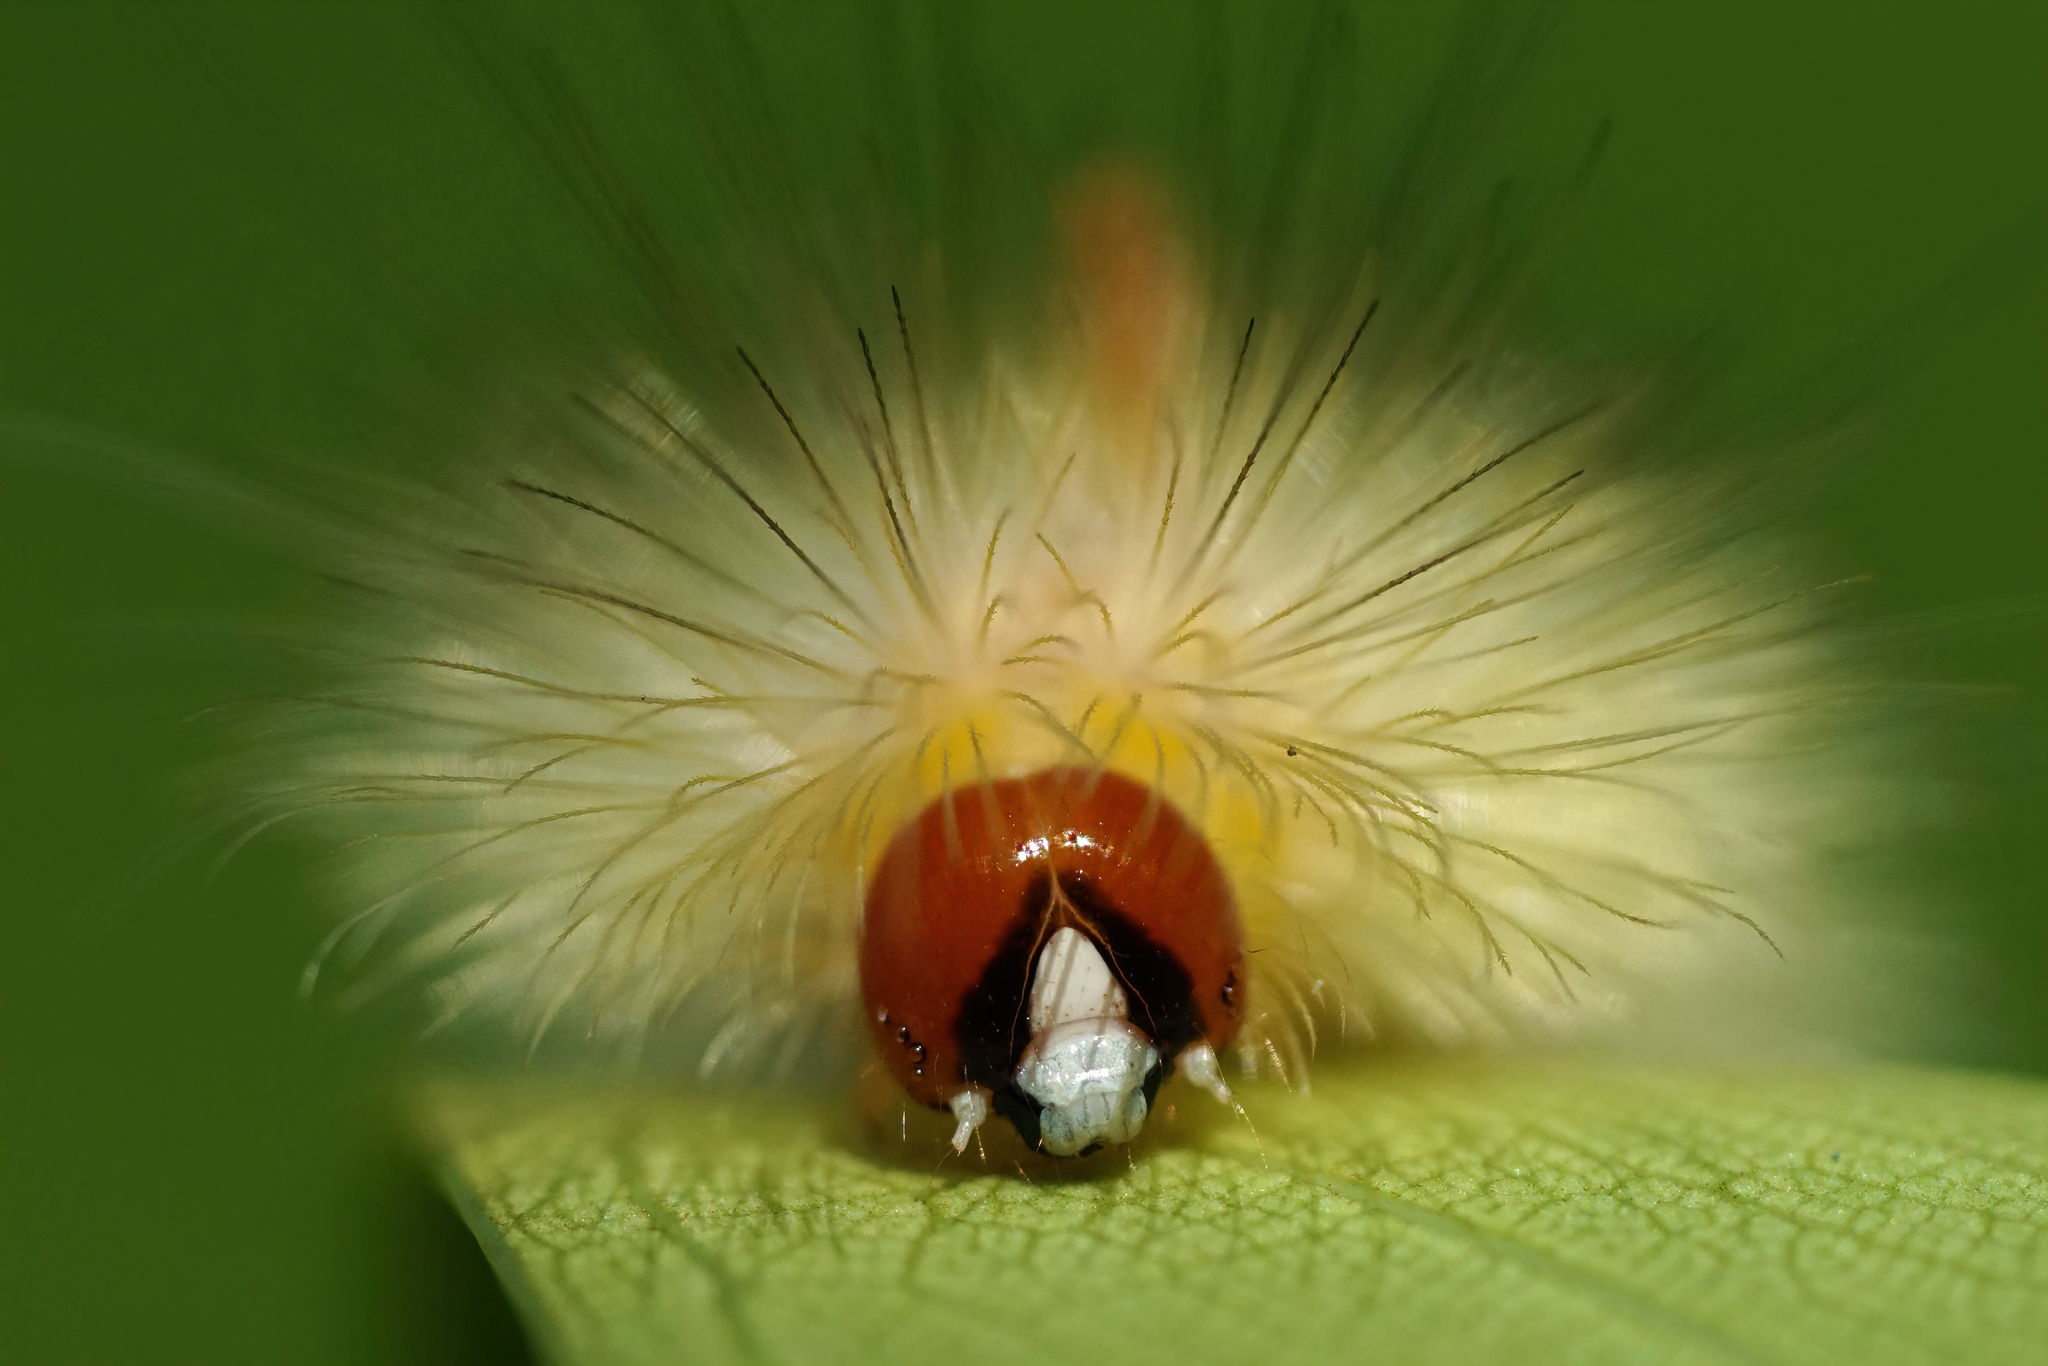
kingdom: Animalia
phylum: Arthropoda
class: Insecta
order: Lepidoptera
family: Erebidae
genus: Lymire
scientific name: Lymire edwardsii
